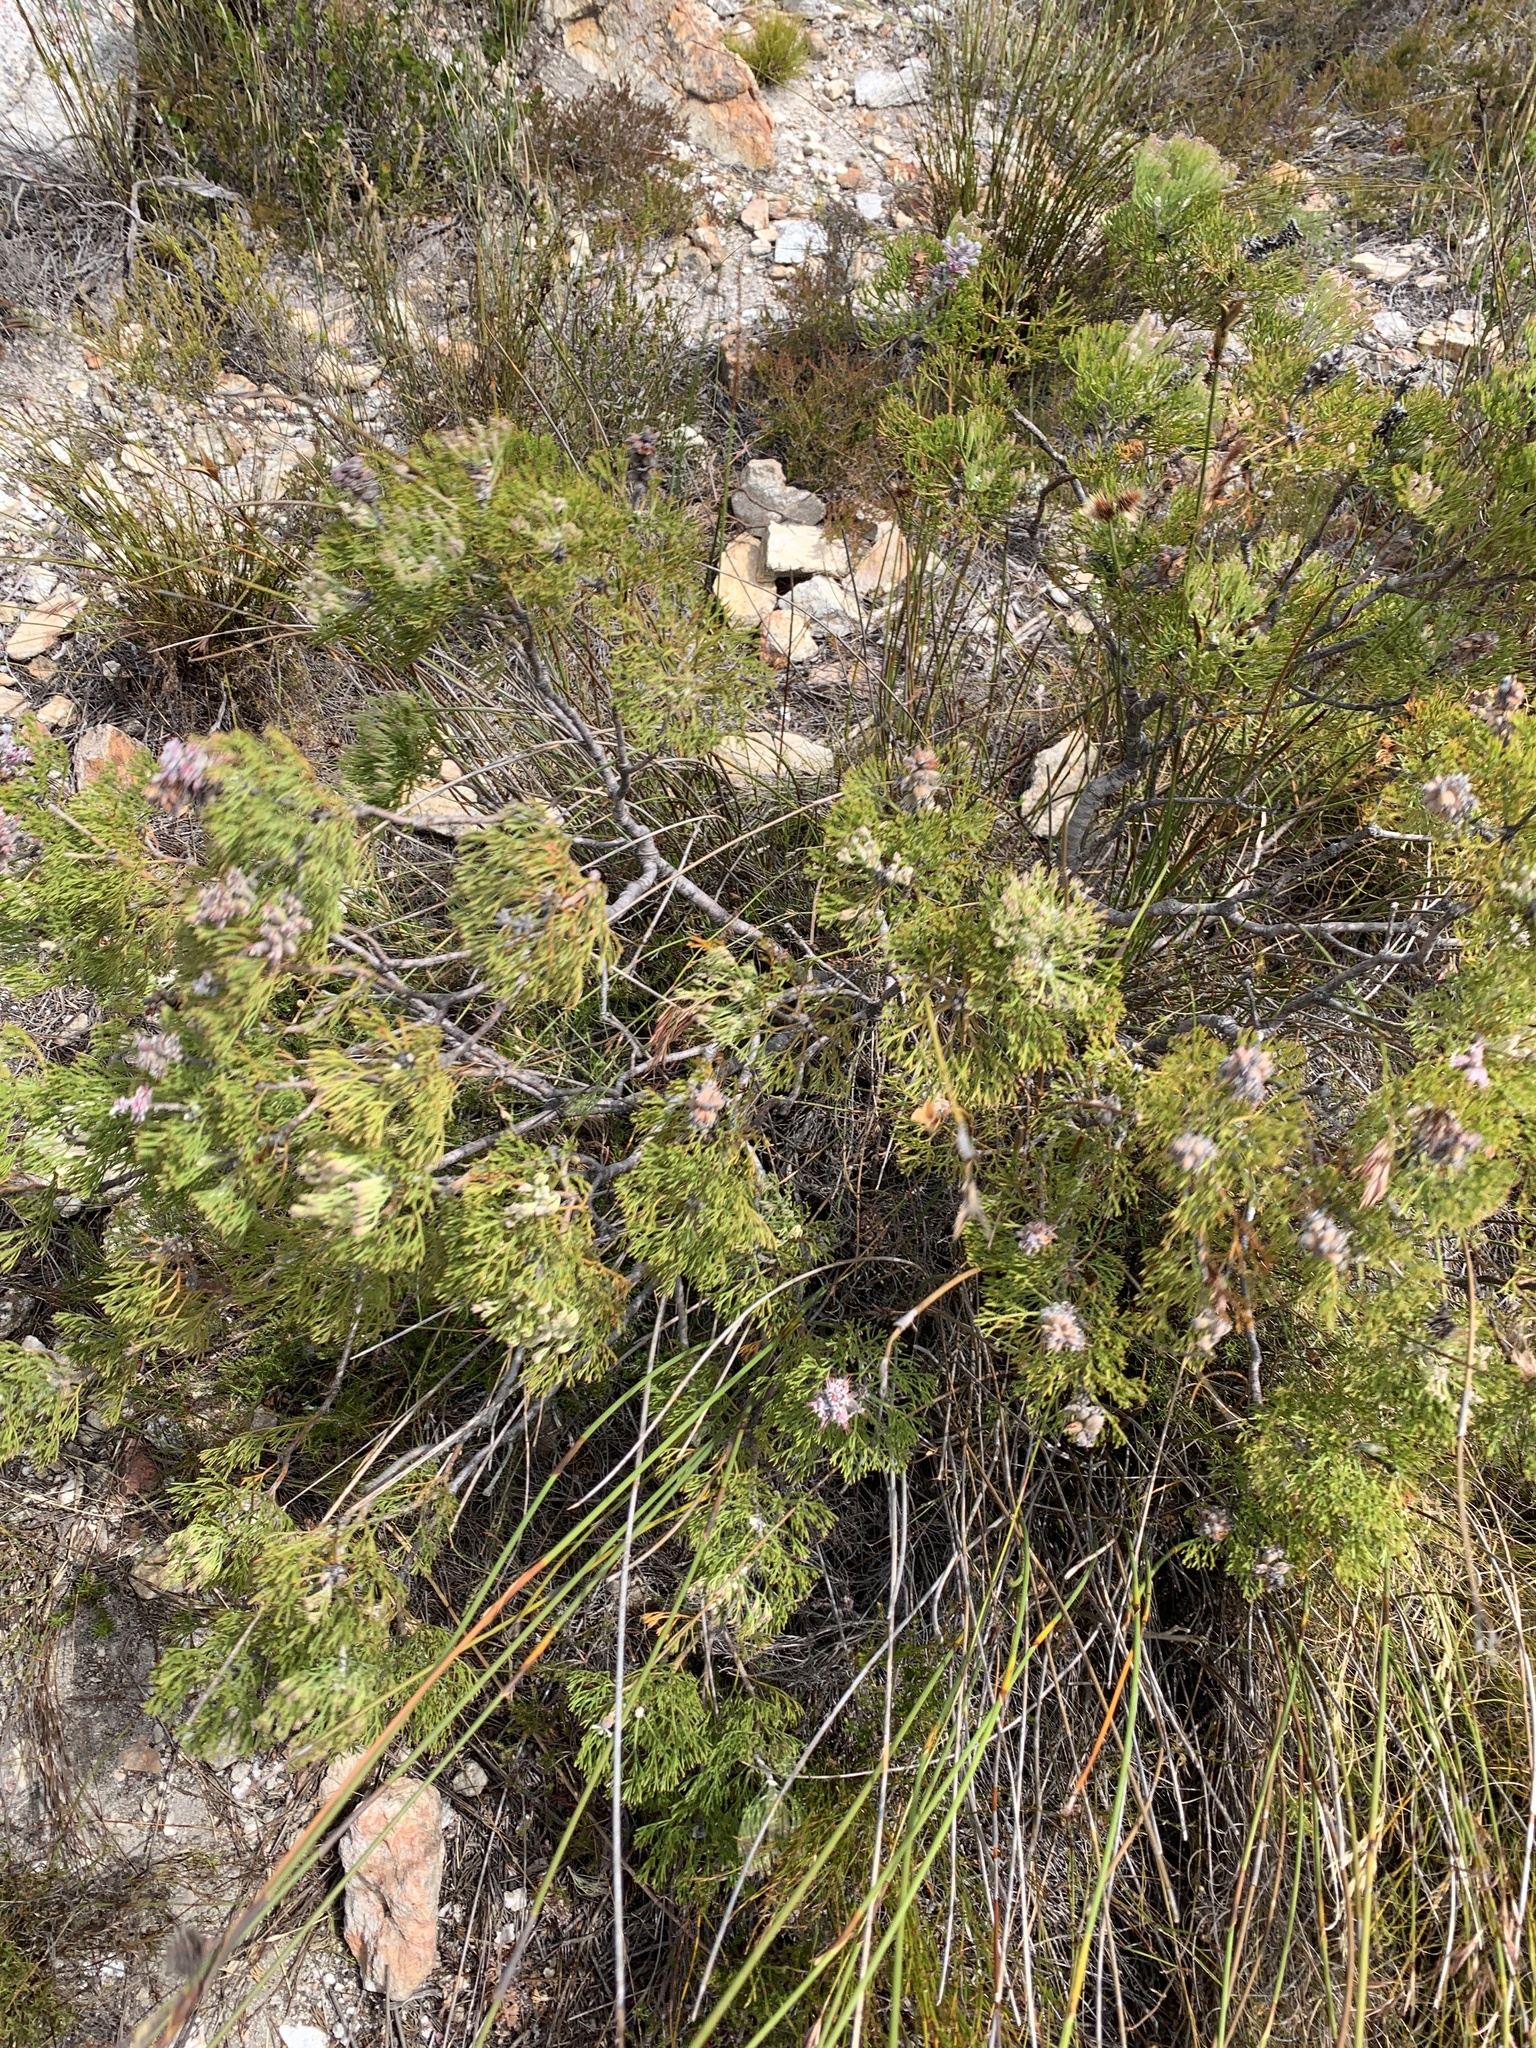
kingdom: Plantae
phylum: Tracheophyta
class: Magnoliopsida
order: Proteales
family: Proteaceae
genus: Paranomus
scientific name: Paranomus bolusii
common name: Overberg sceptre
